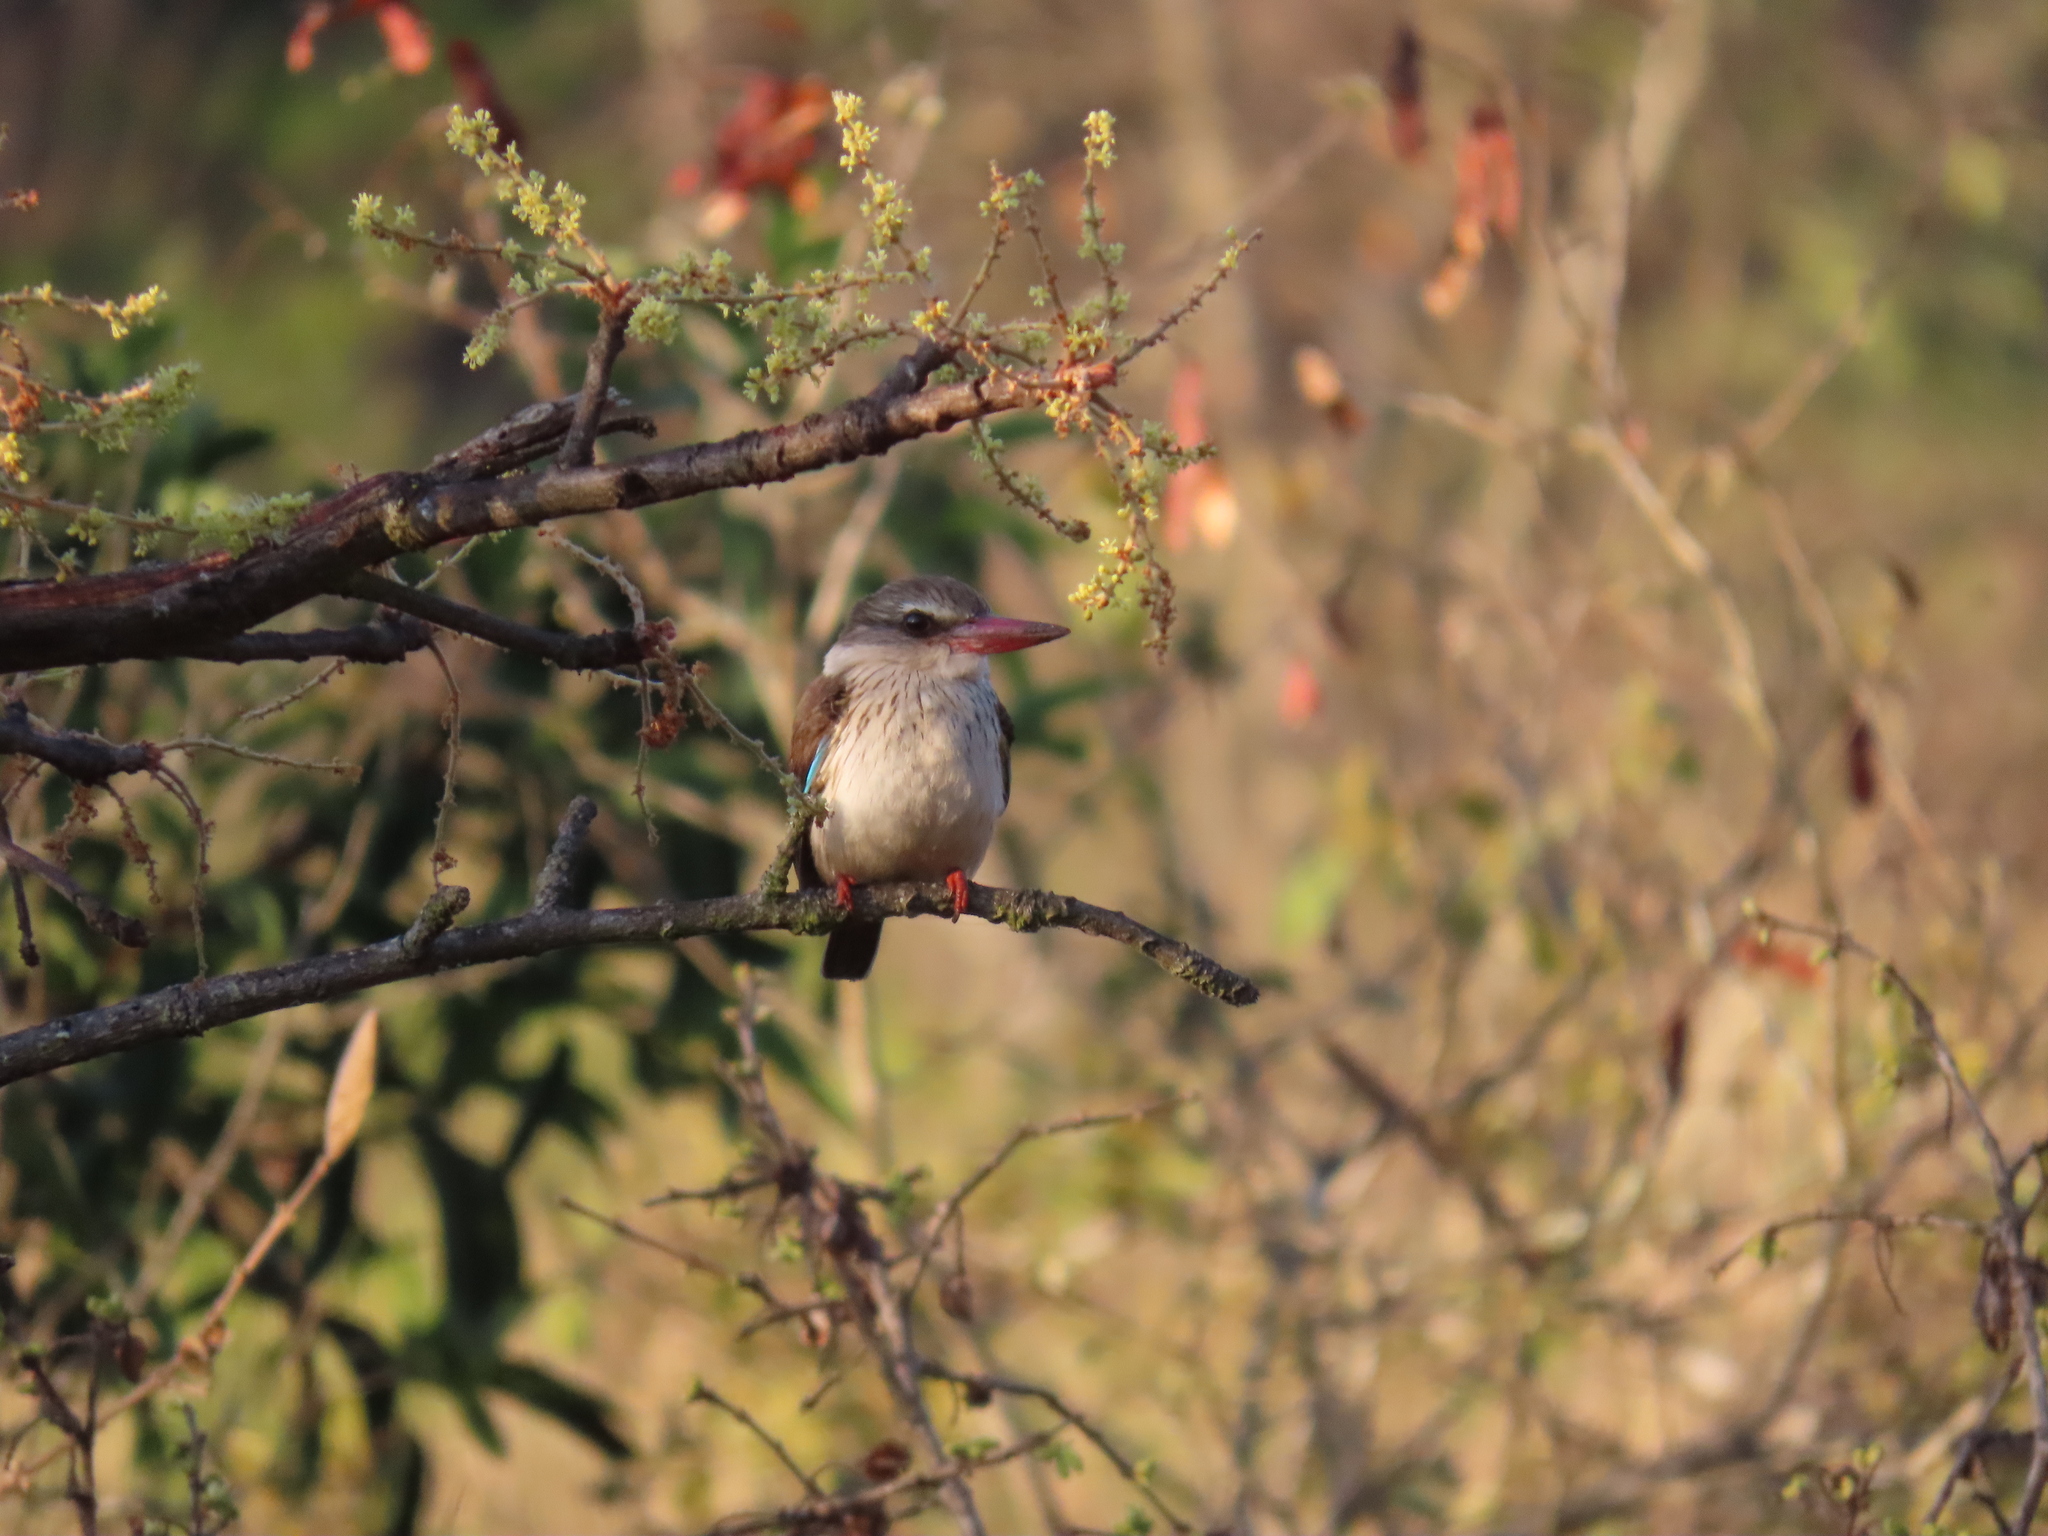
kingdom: Animalia
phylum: Chordata
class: Aves
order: Coraciiformes
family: Alcedinidae
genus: Halcyon
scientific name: Halcyon albiventris
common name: Brown-hooded kingfisher
